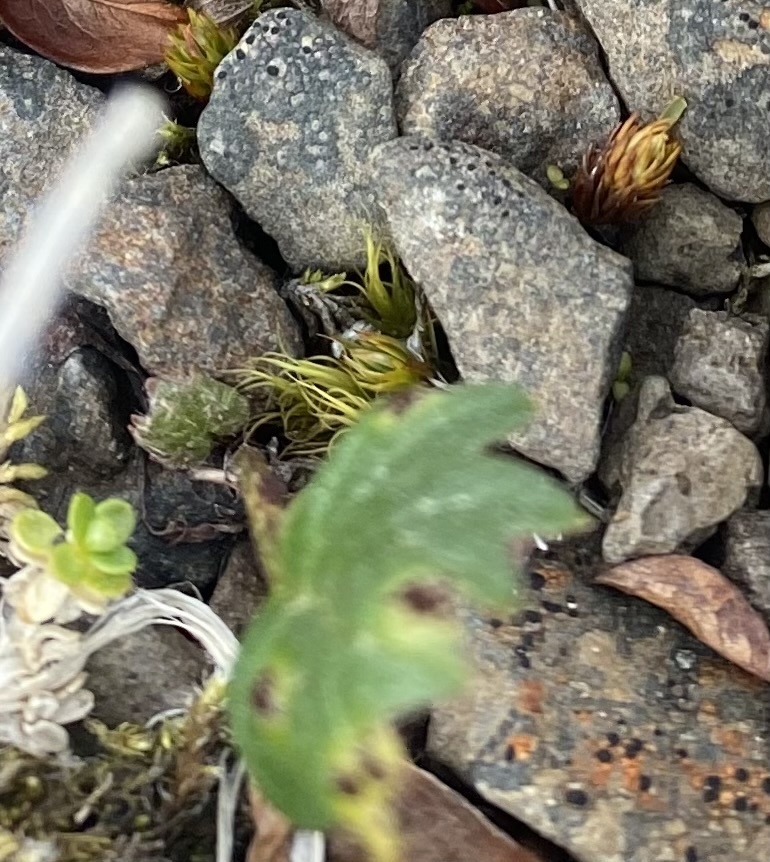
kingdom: Plantae
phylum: Tracheophyta
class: Magnoliopsida
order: Asterales
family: Asteraceae
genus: Endocellion
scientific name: Endocellion glaciale
